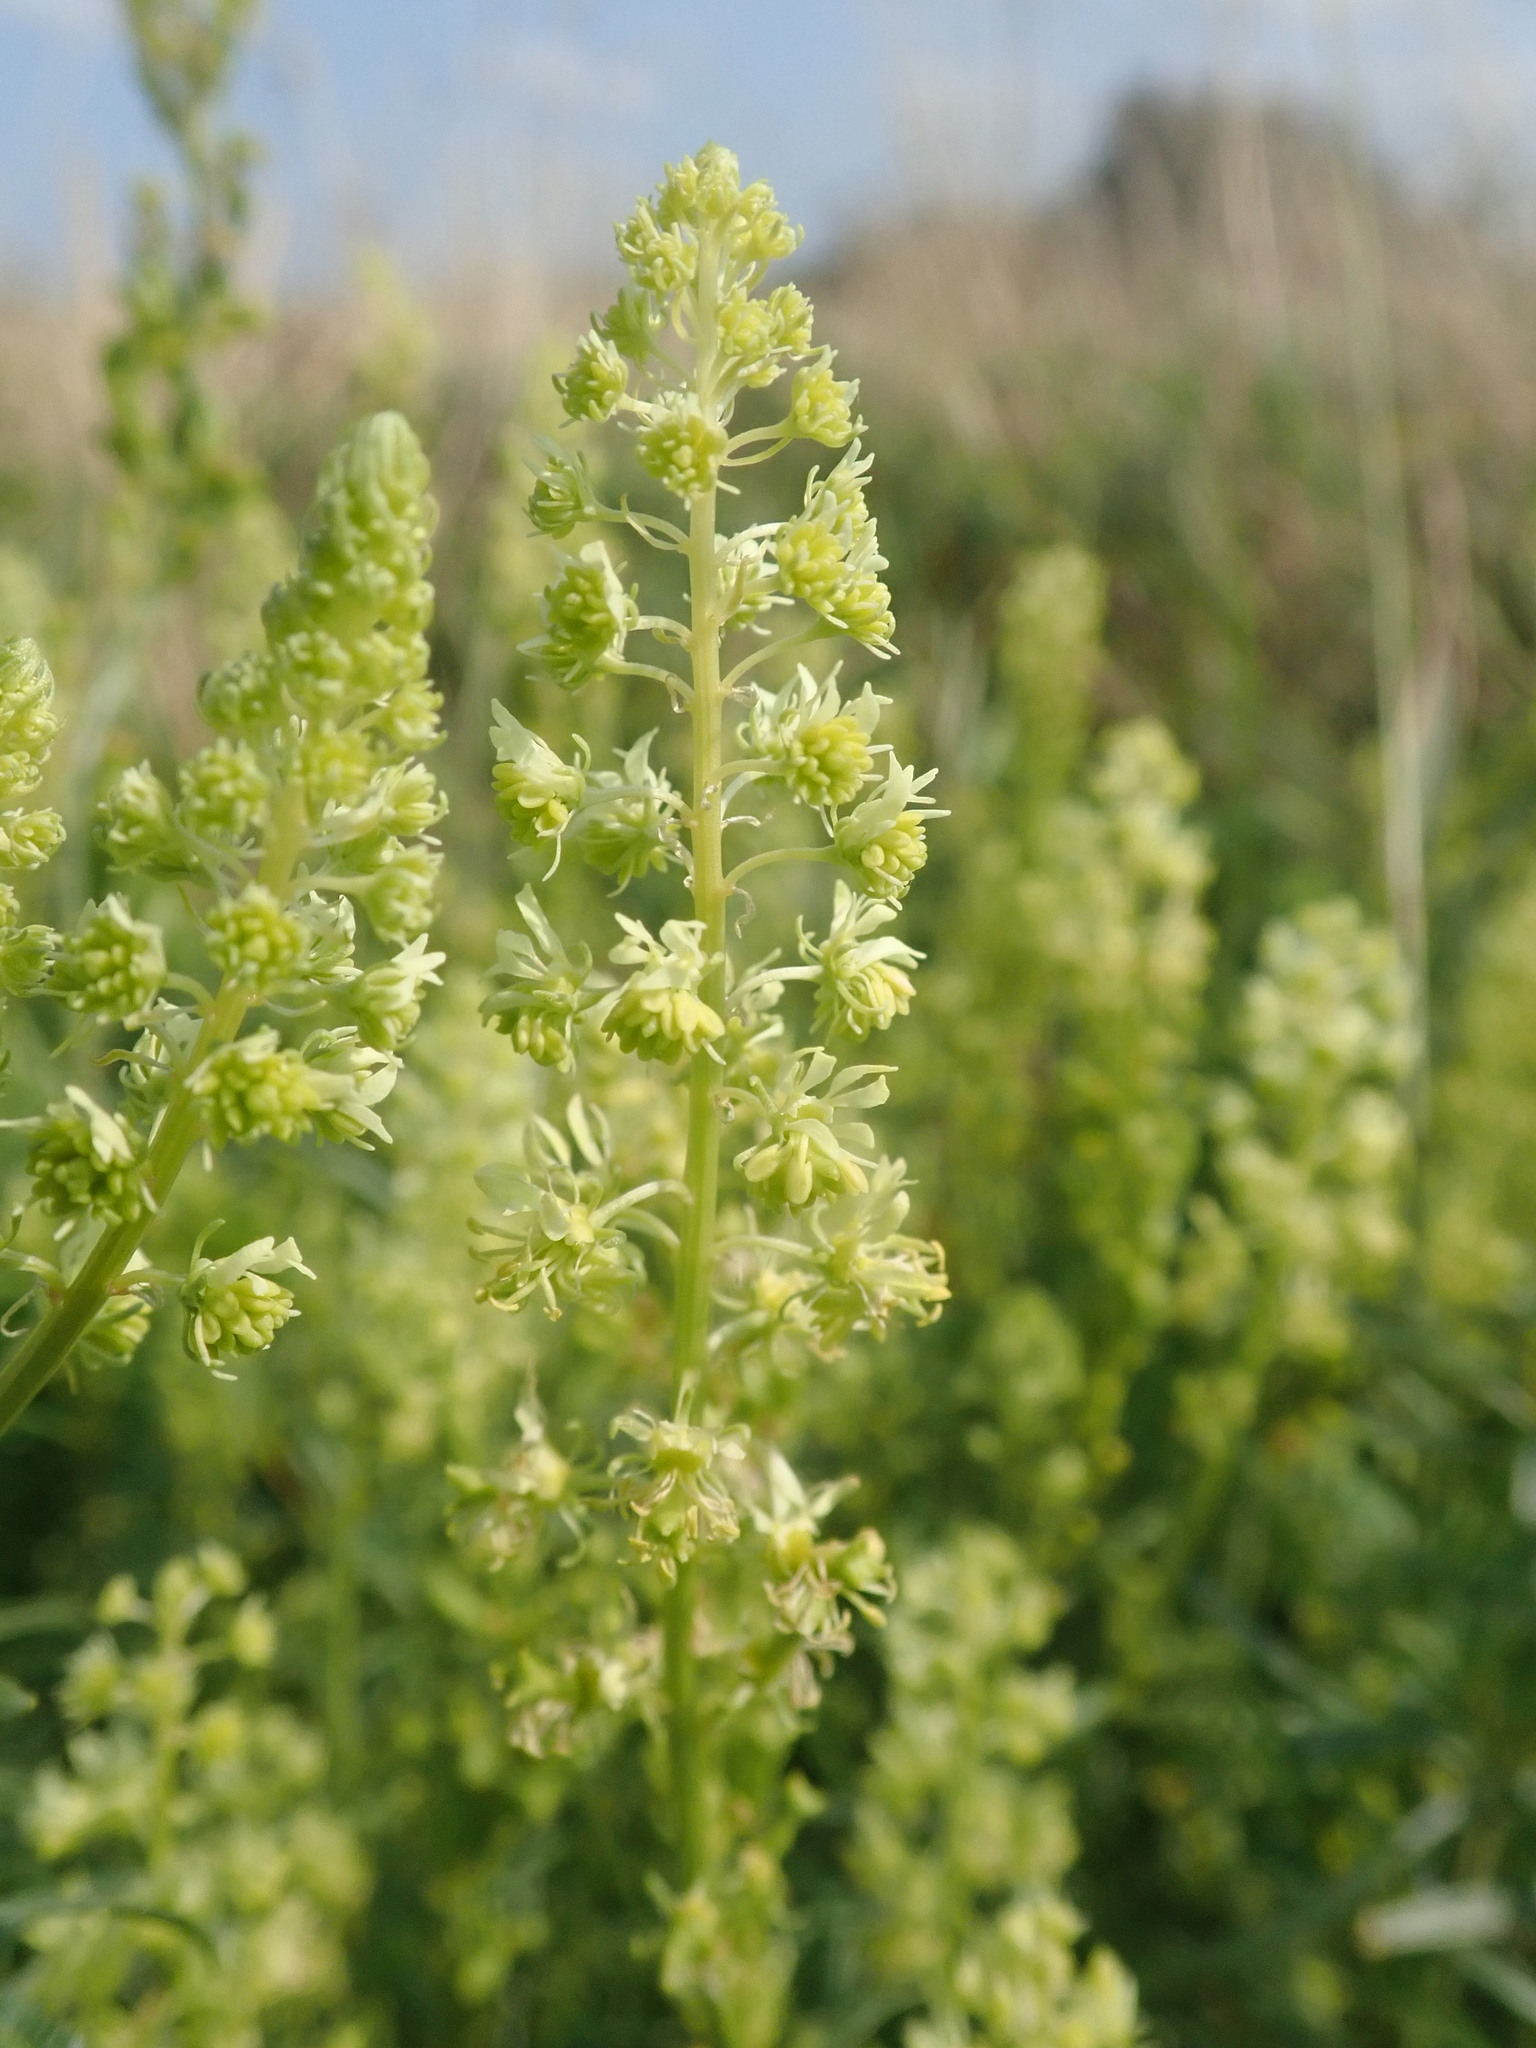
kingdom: Plantae
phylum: Tracheophyta
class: Magnoliopsida
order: Brassicales
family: Resedaceae
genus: Reseda
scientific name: Reseda lutea
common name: Wild mignonette
